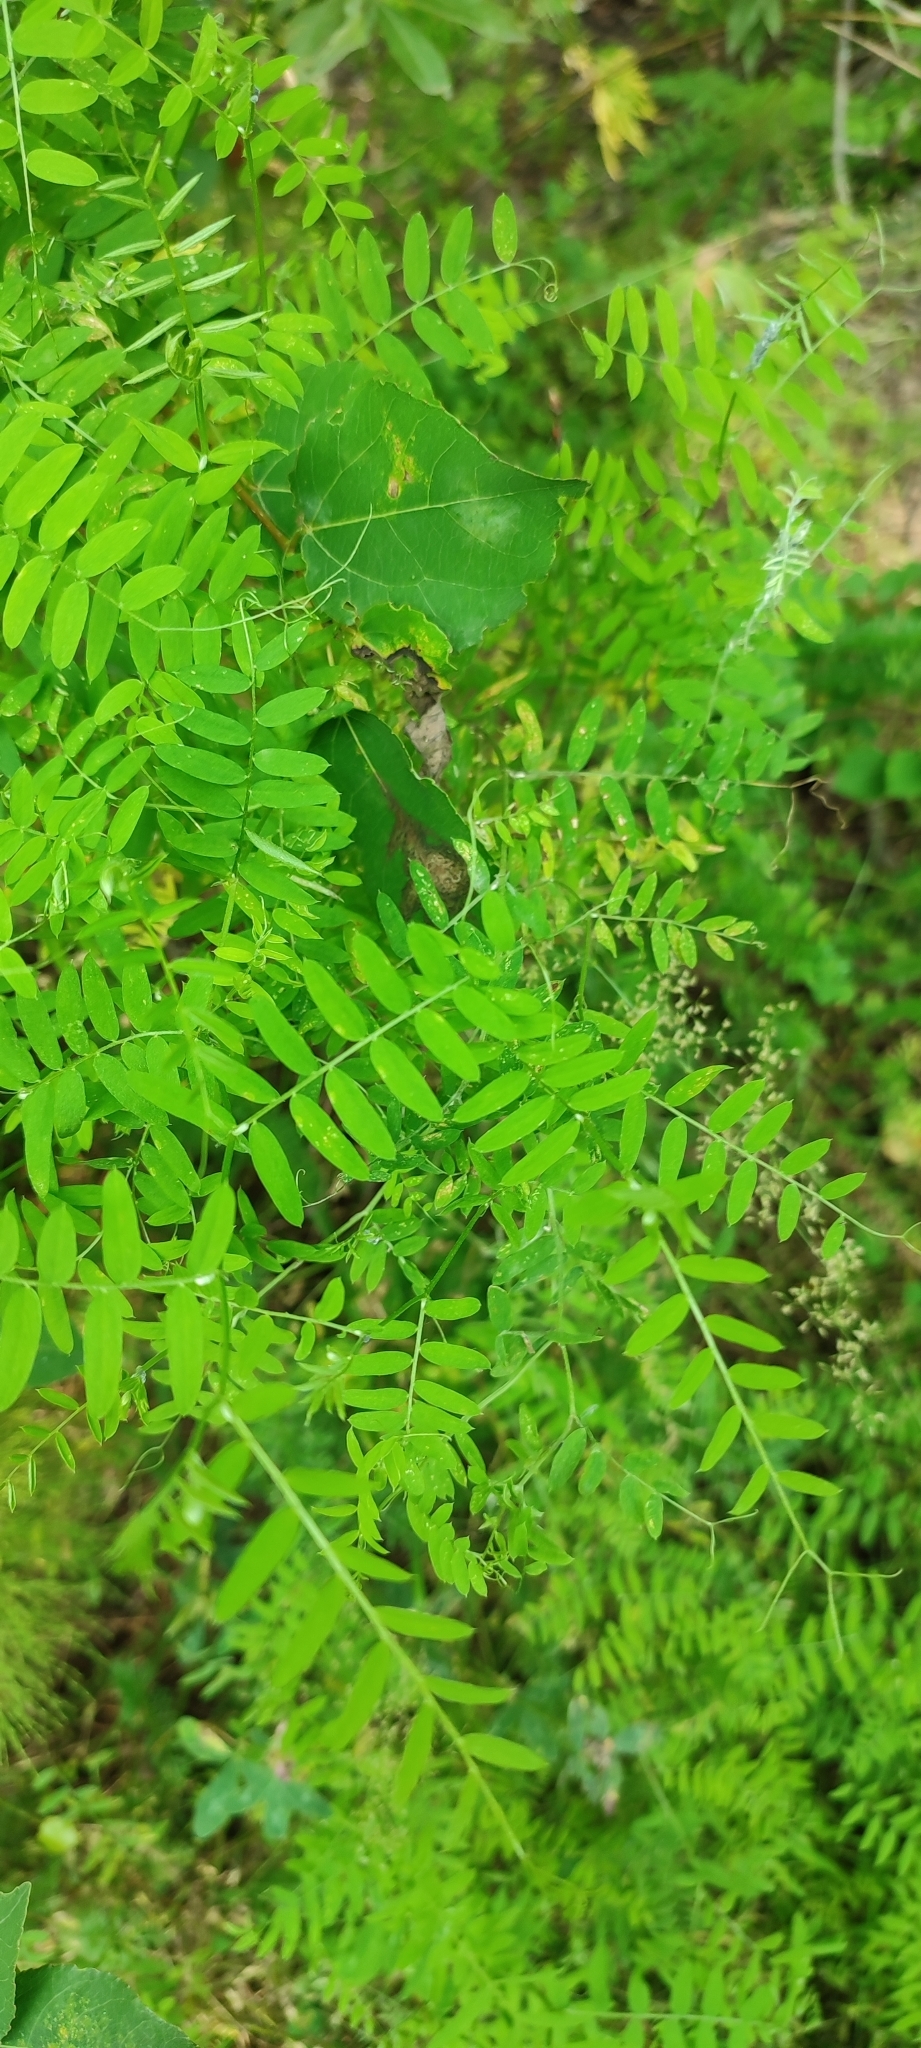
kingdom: Plantae
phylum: Tracheophyta
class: Magnoliopsida
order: Fabales
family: Fabaceae
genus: Vicia
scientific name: Vicia cracca
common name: Bird vetch
